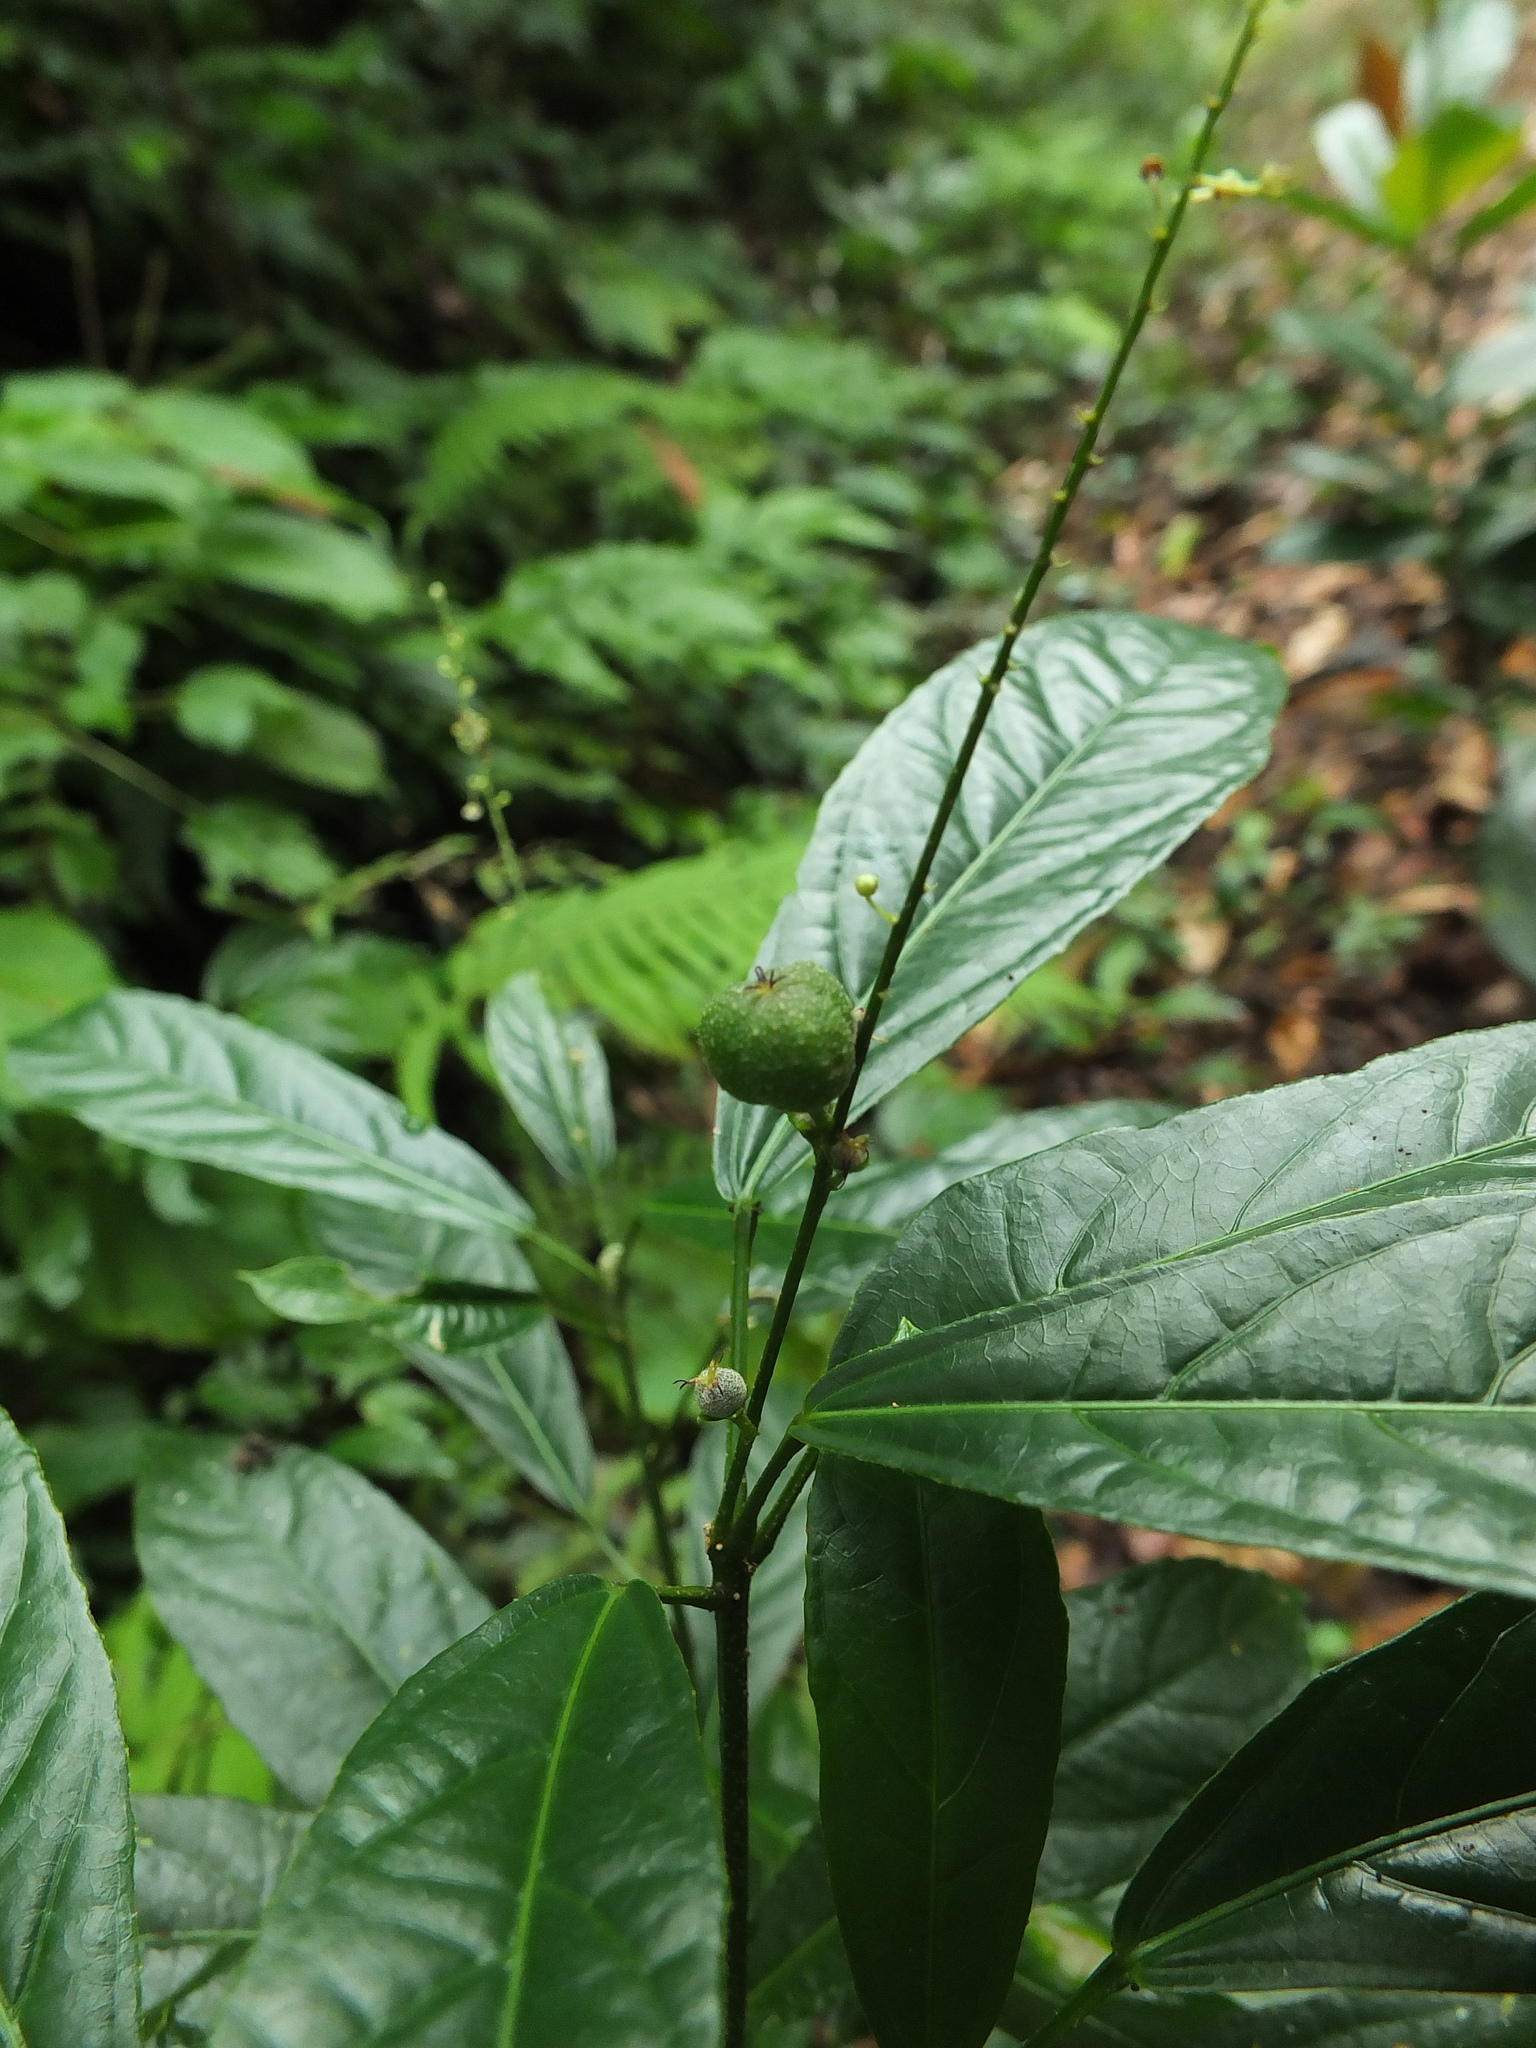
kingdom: Plantae
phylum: Tracheophyta
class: Magnoliopsida
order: Malpighiales
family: Euphorbiaceae
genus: Croton
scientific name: Croton chakrabartyi
